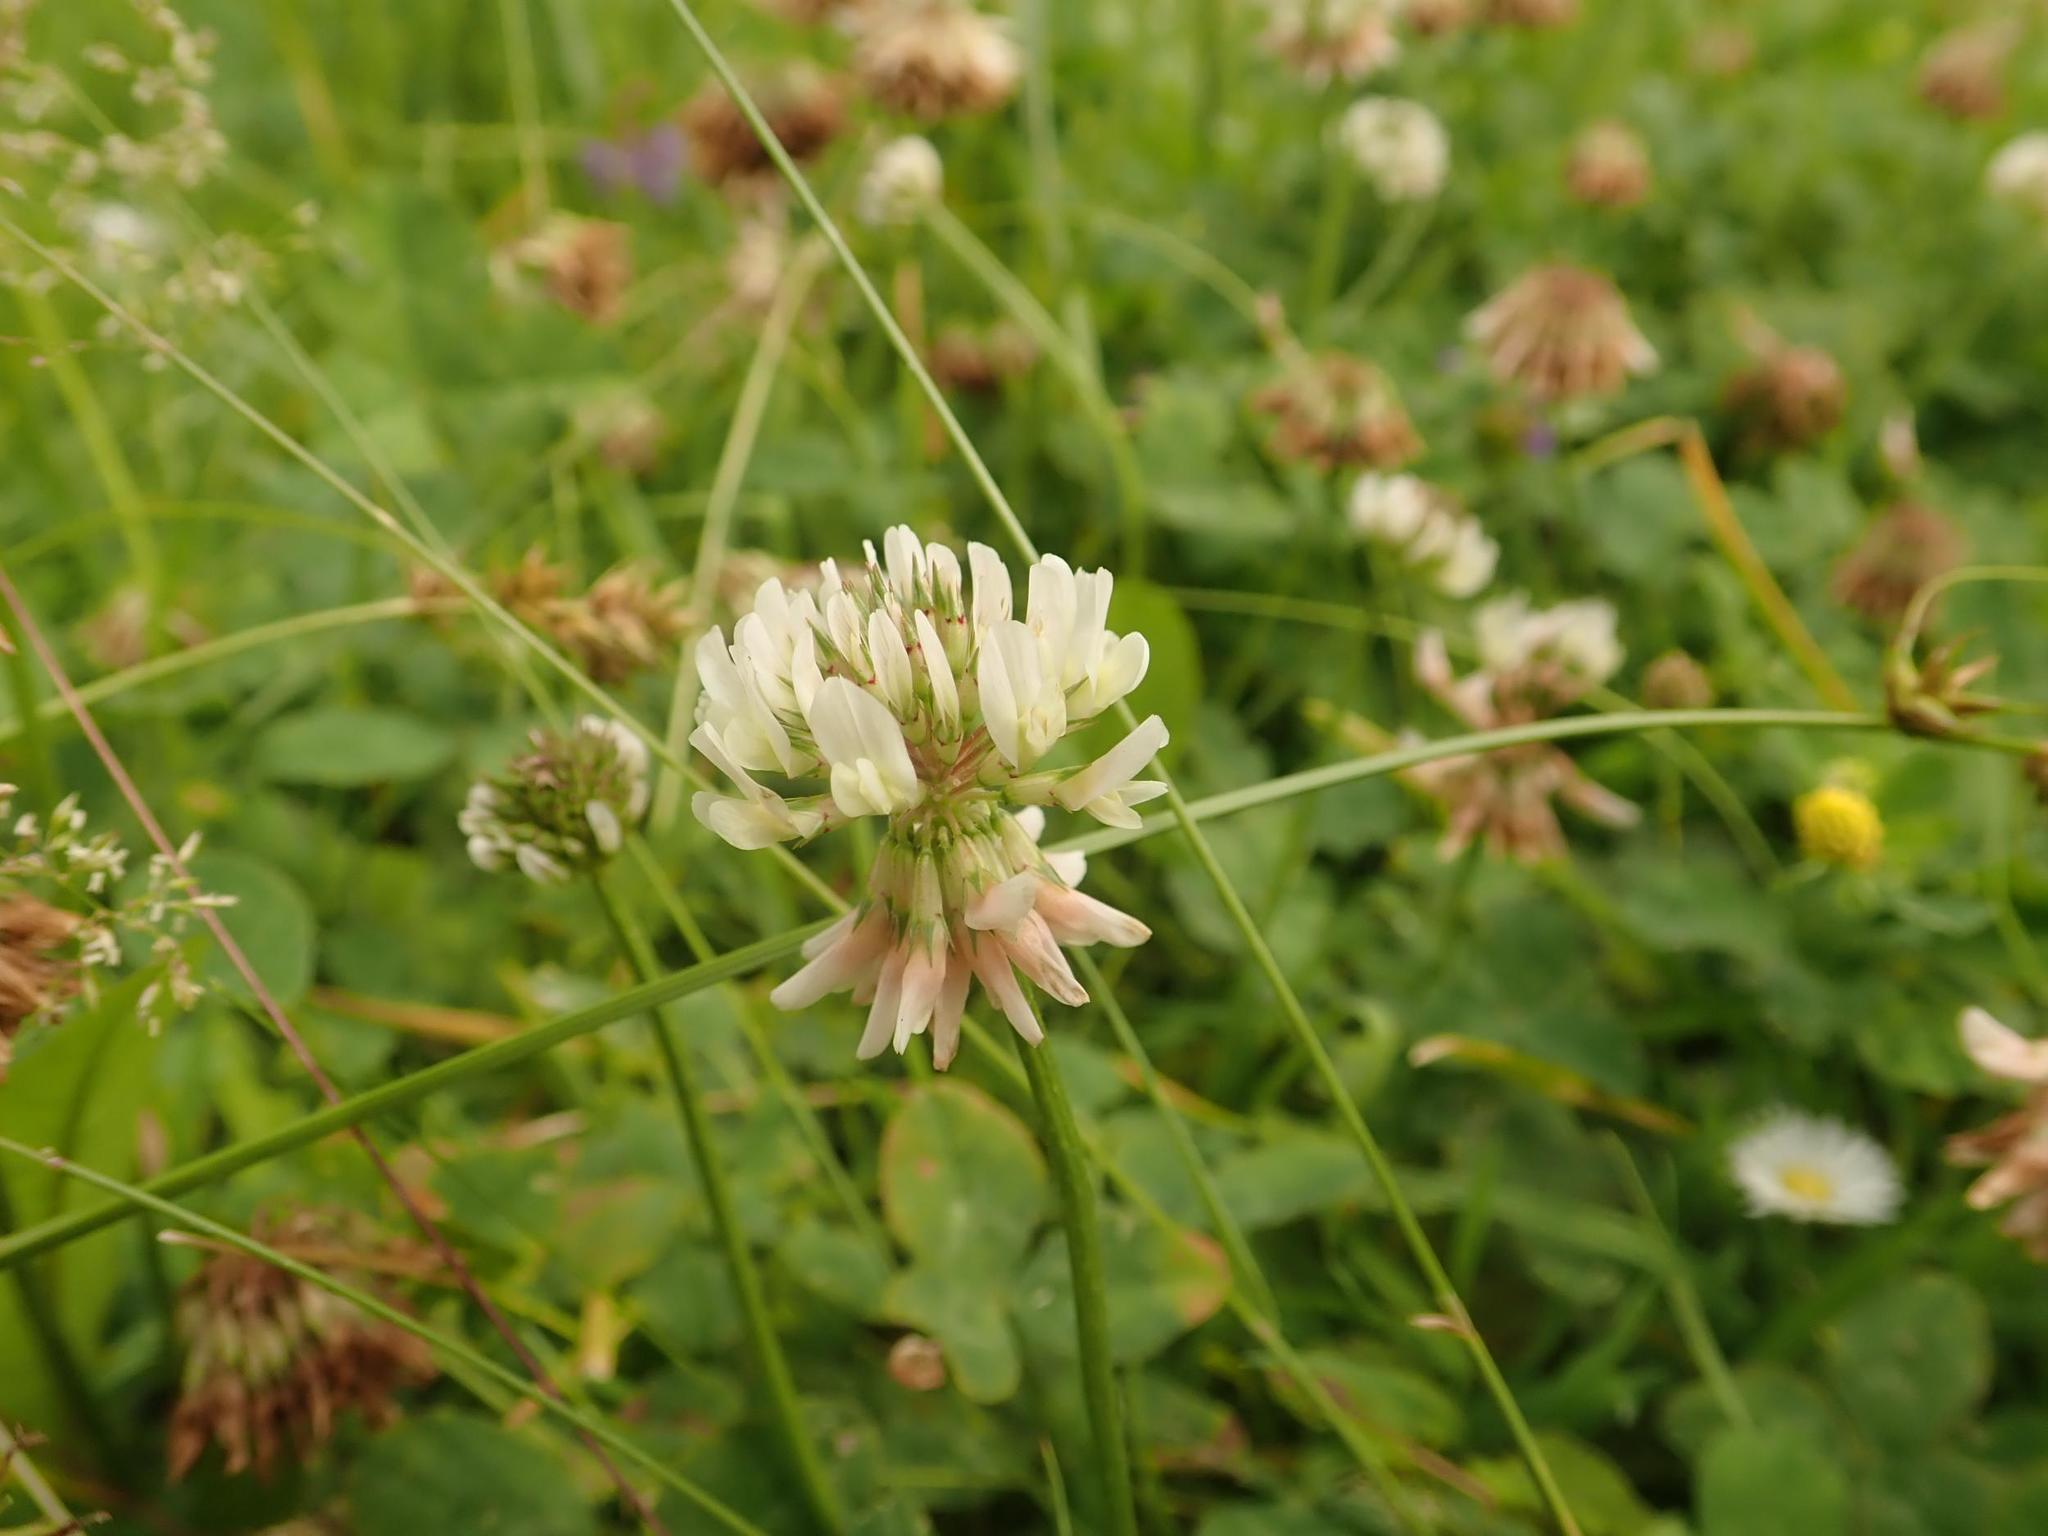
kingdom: Plantae
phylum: Tracheophyta
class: Magnoliopsida
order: Fabales
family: Fabaceae
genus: Trifolium
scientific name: Trifolium repens
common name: White clover
